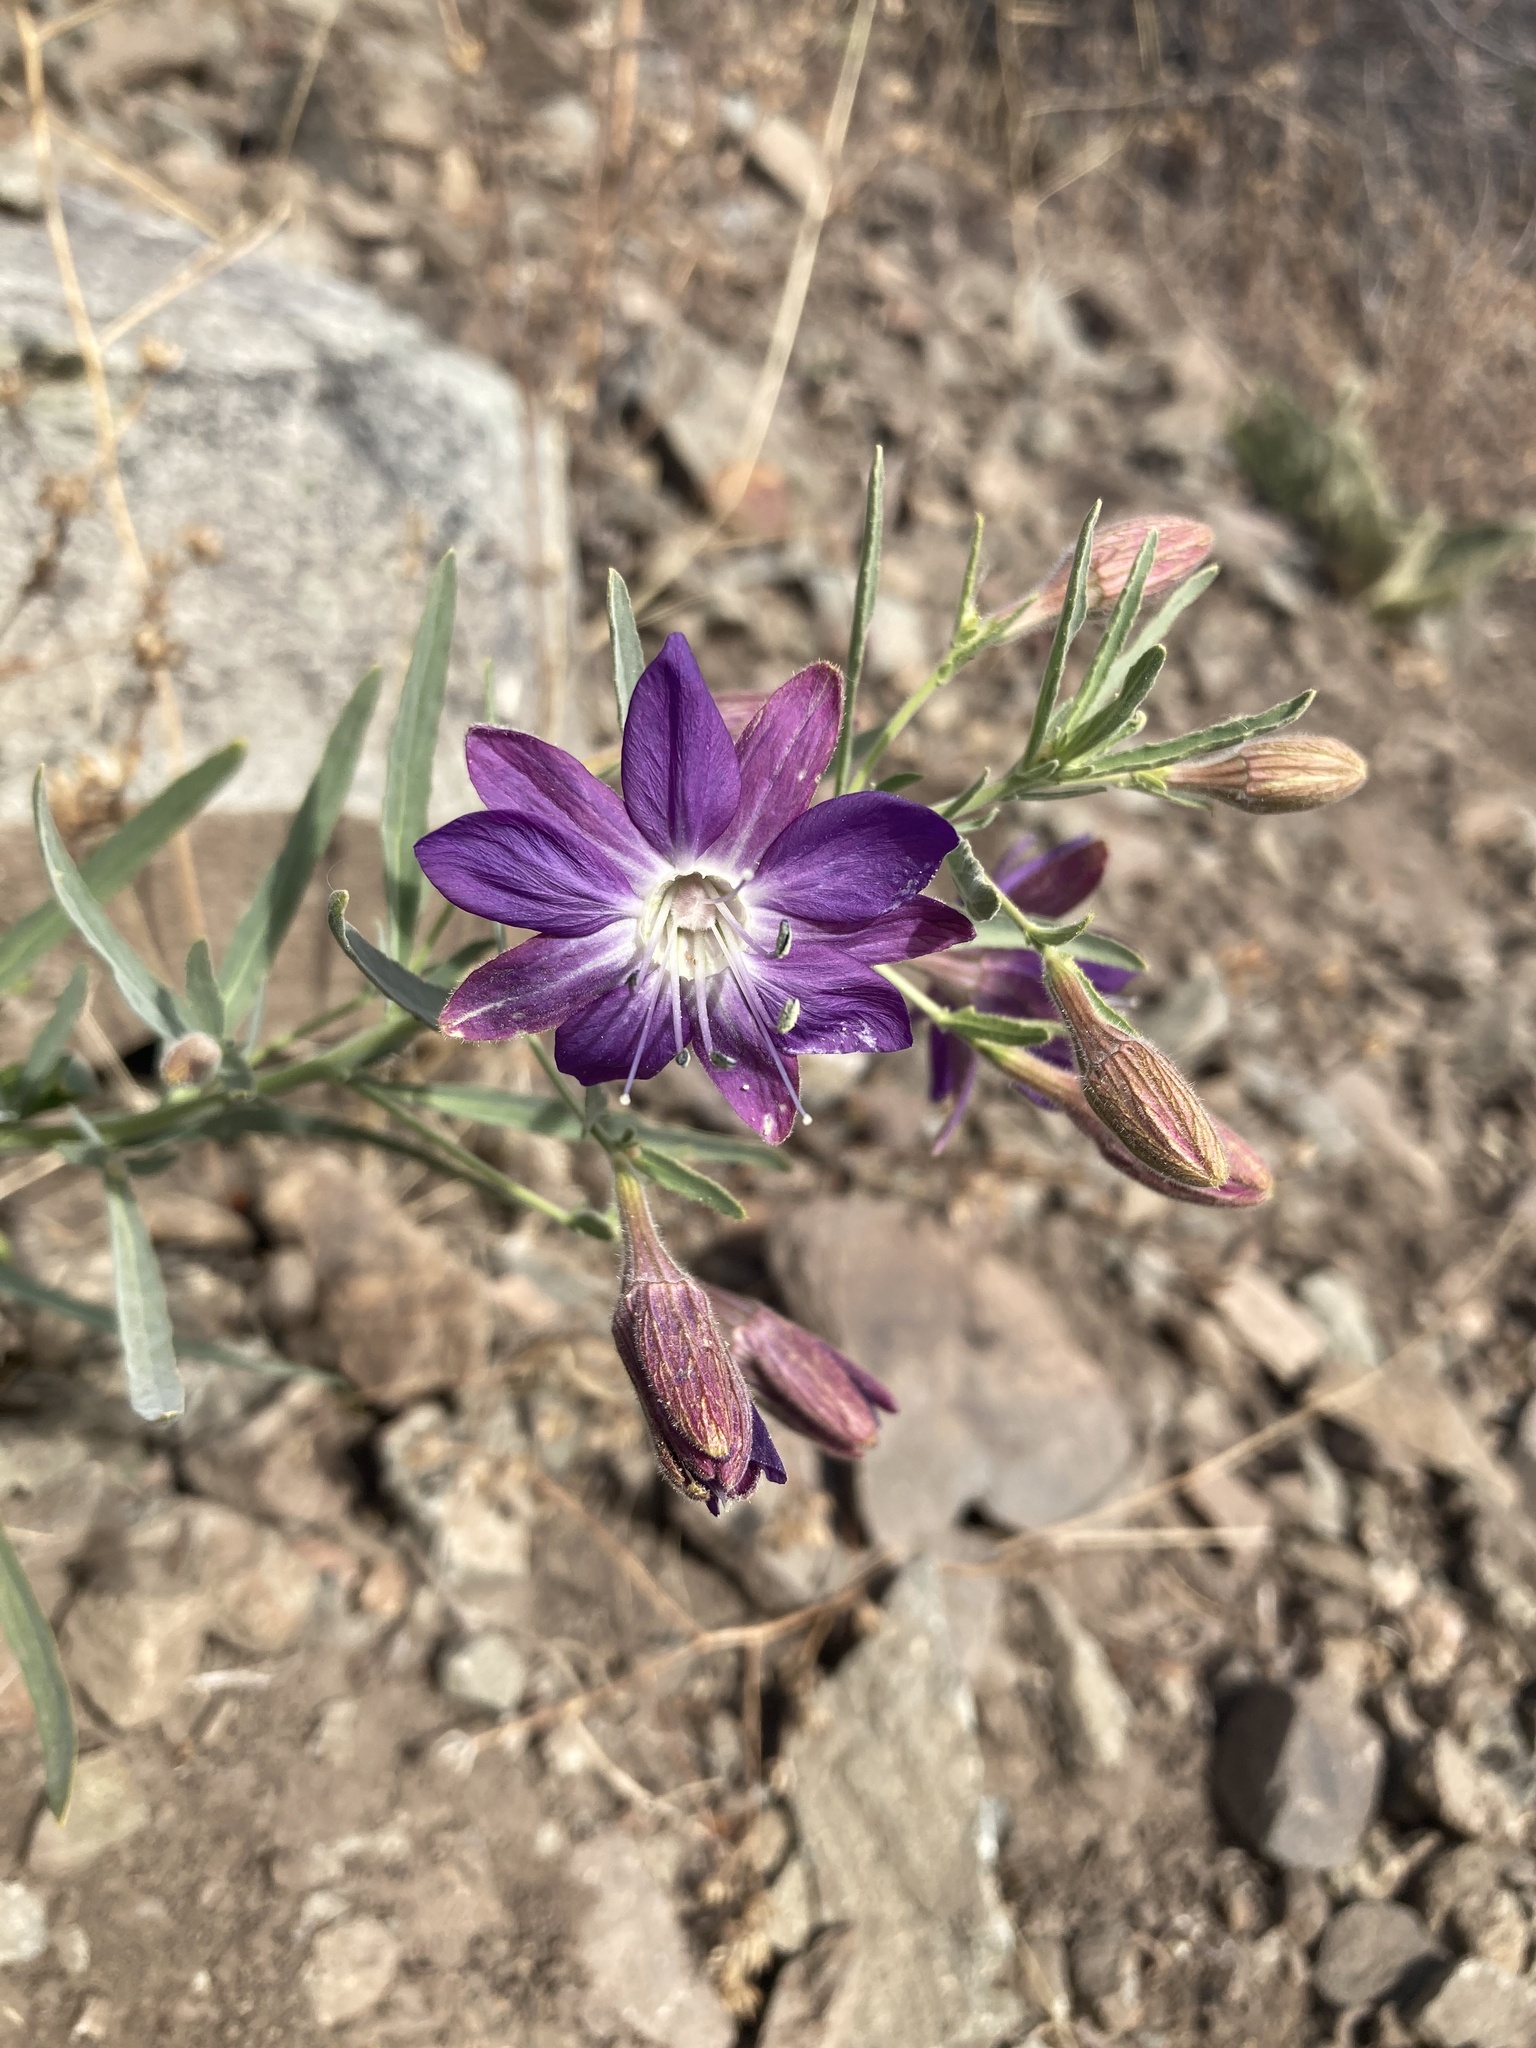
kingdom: Plantae
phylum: Tracheophyta
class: Magnoliopsida
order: Malpighiales
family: Malesherbiaceae
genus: Malesherbia
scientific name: Malesherbia linearifolia
